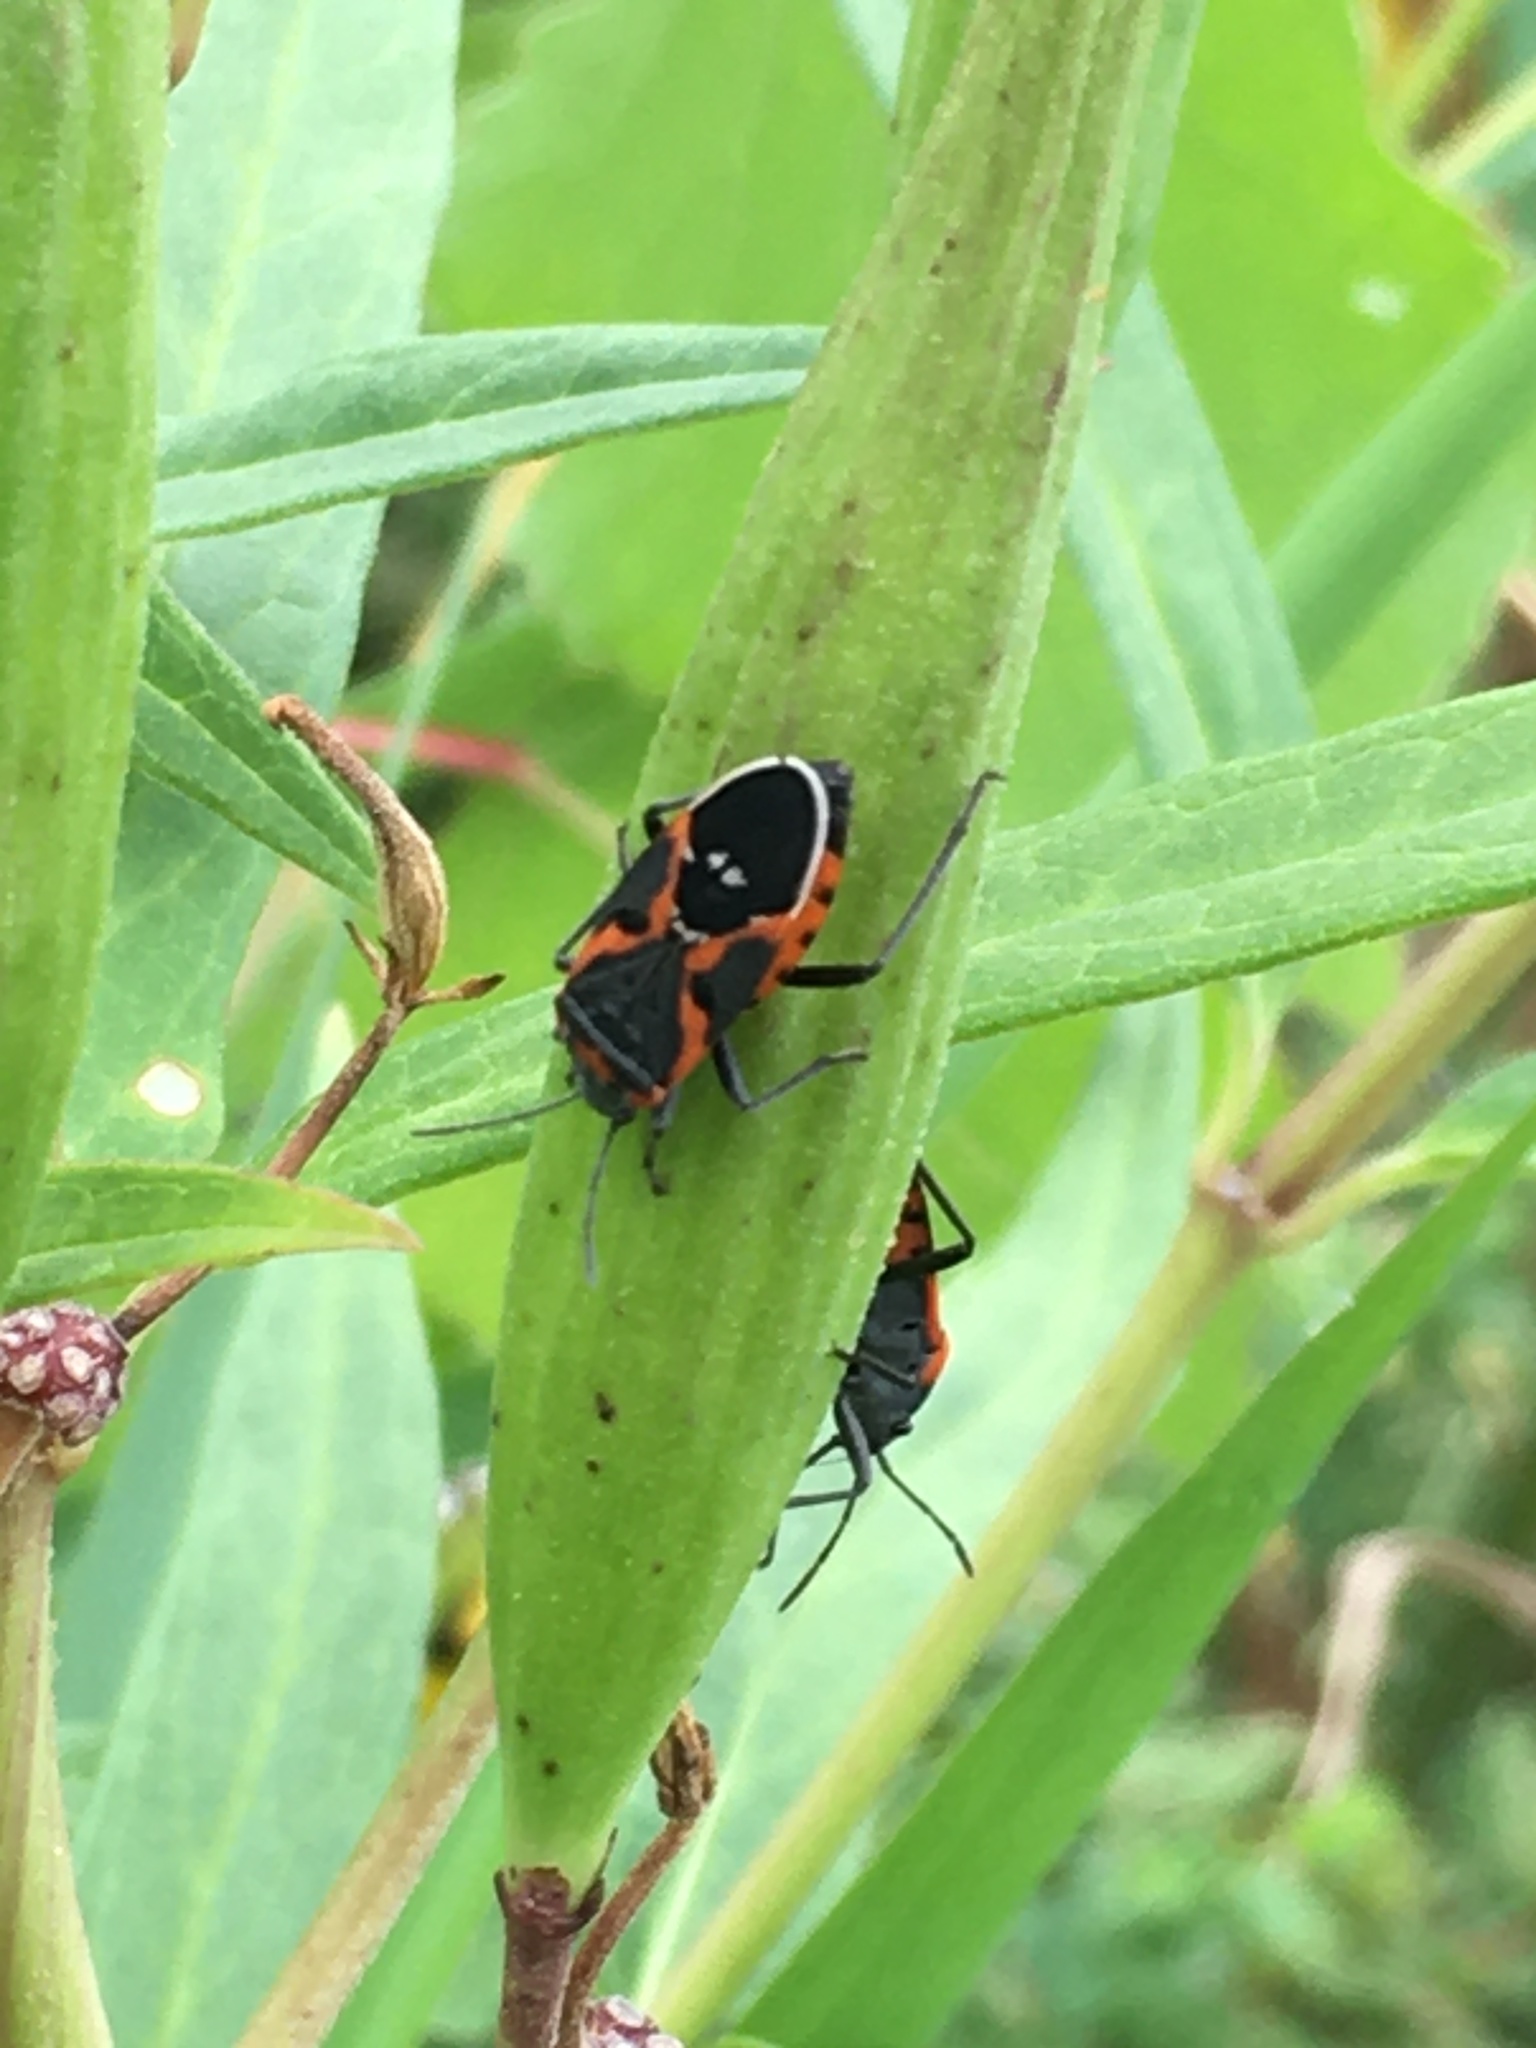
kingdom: Animalia
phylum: Arthropoda
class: Insecta
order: Hemiptera
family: Lygaeidae
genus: Lygaeus
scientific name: Lygaeus kalmii
